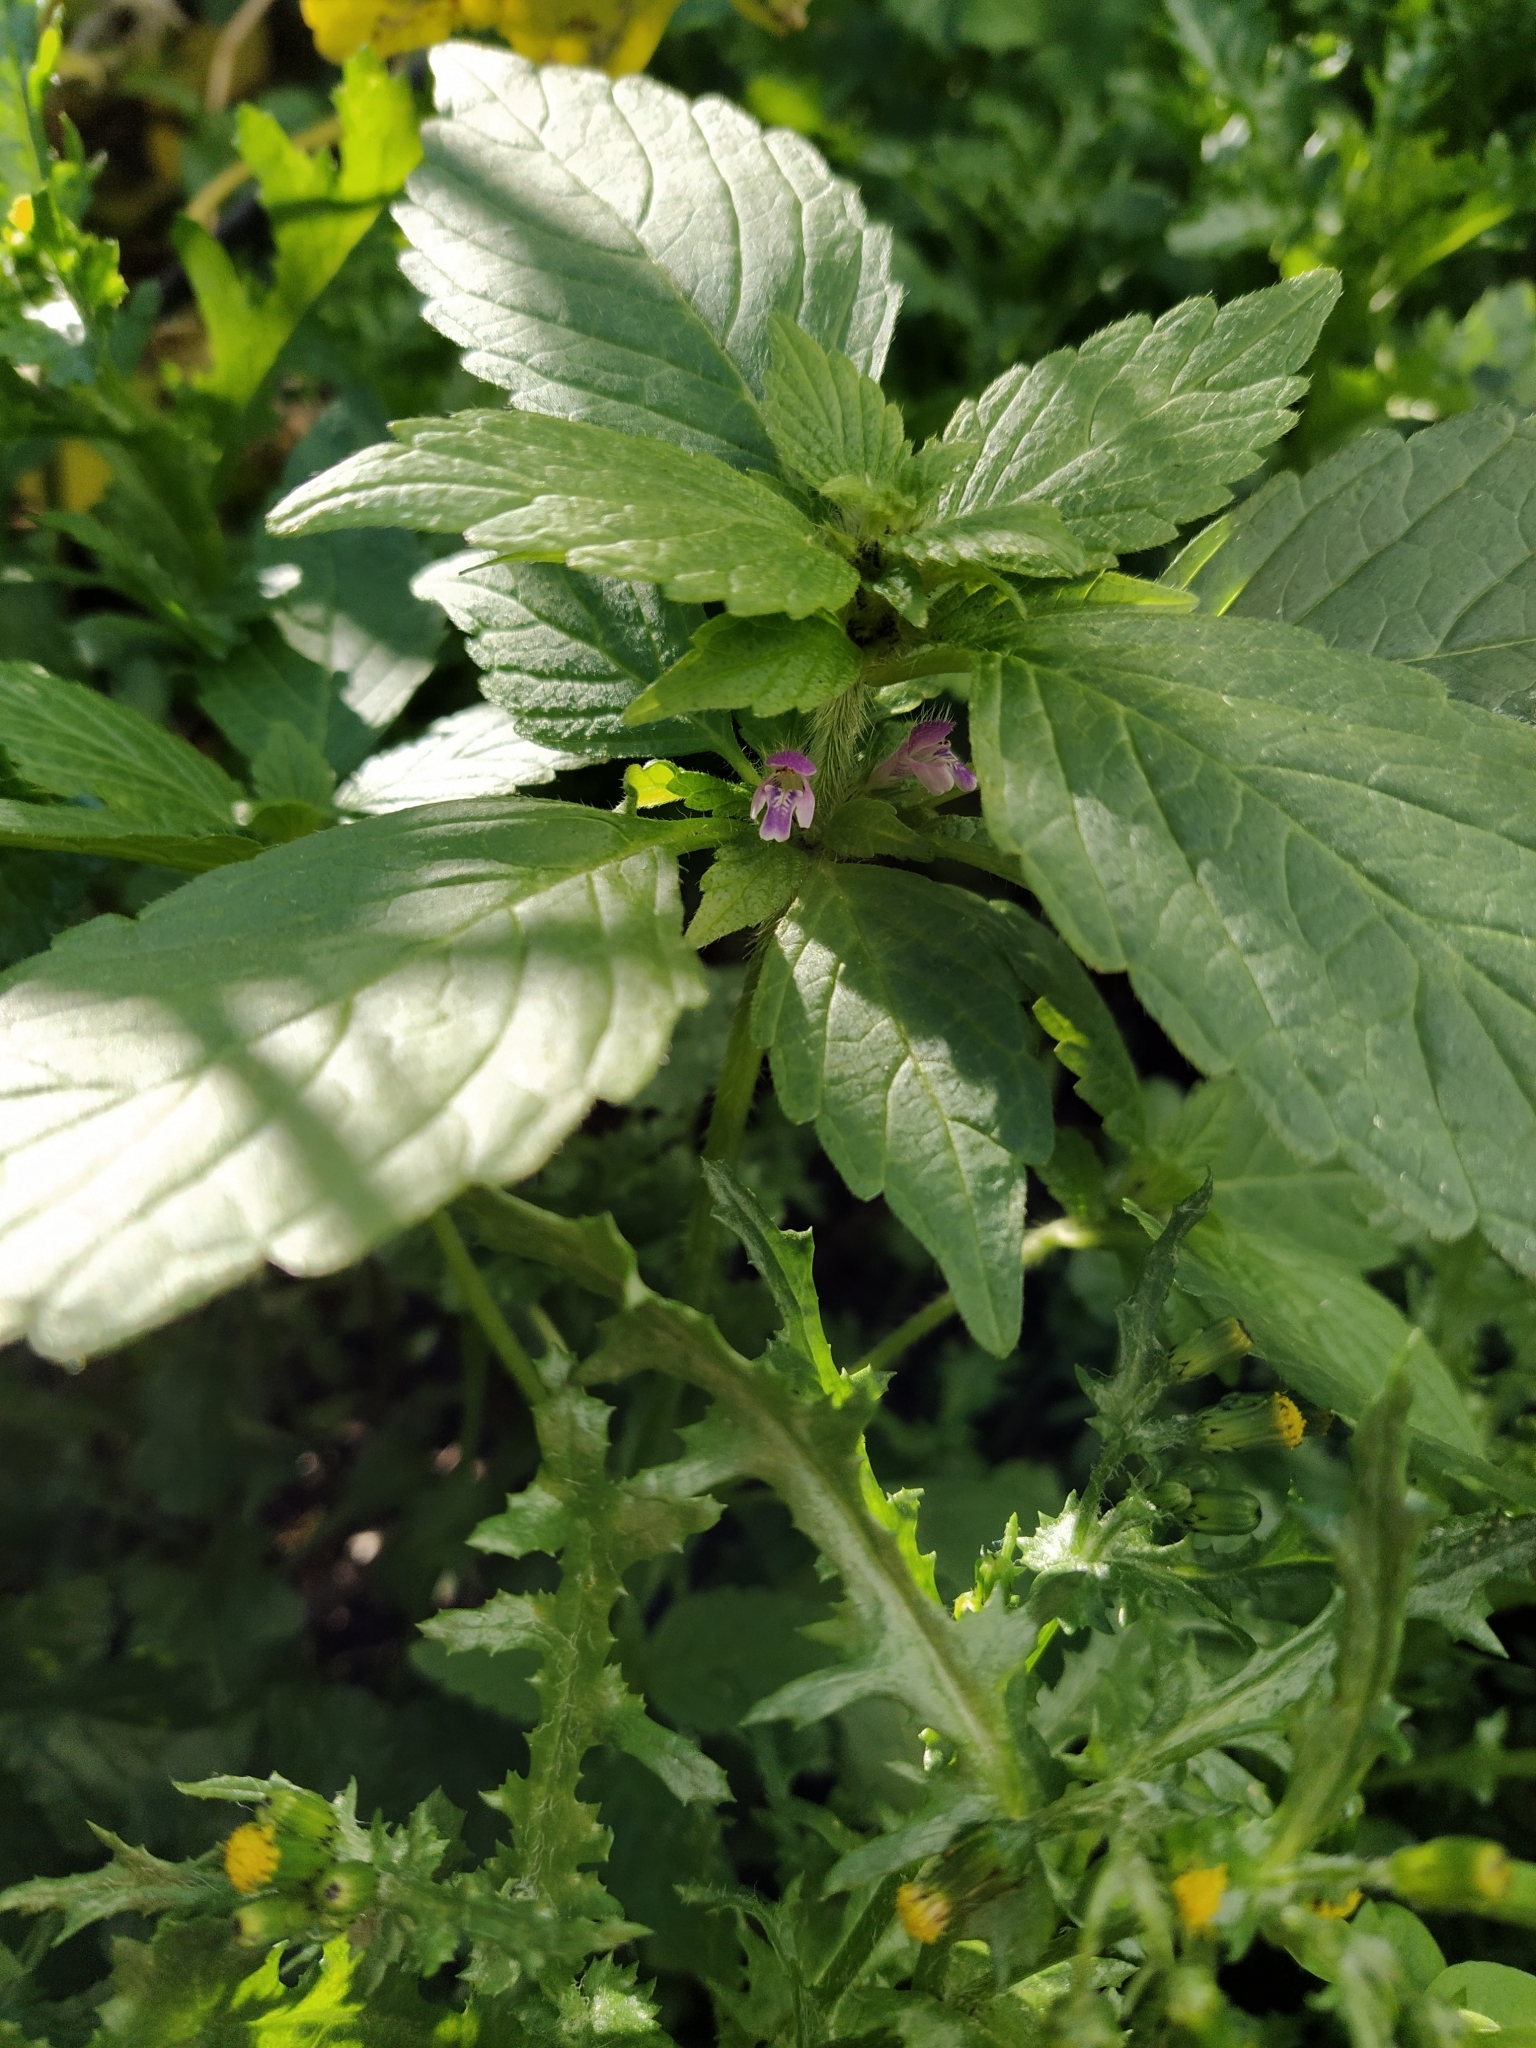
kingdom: Plantae
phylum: Tracheophyta
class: Magnoliopsida
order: Lamiales
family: Lamiaceae
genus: Galeopsis
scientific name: Galeopsis bifida
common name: Bifid hemp-nettle
